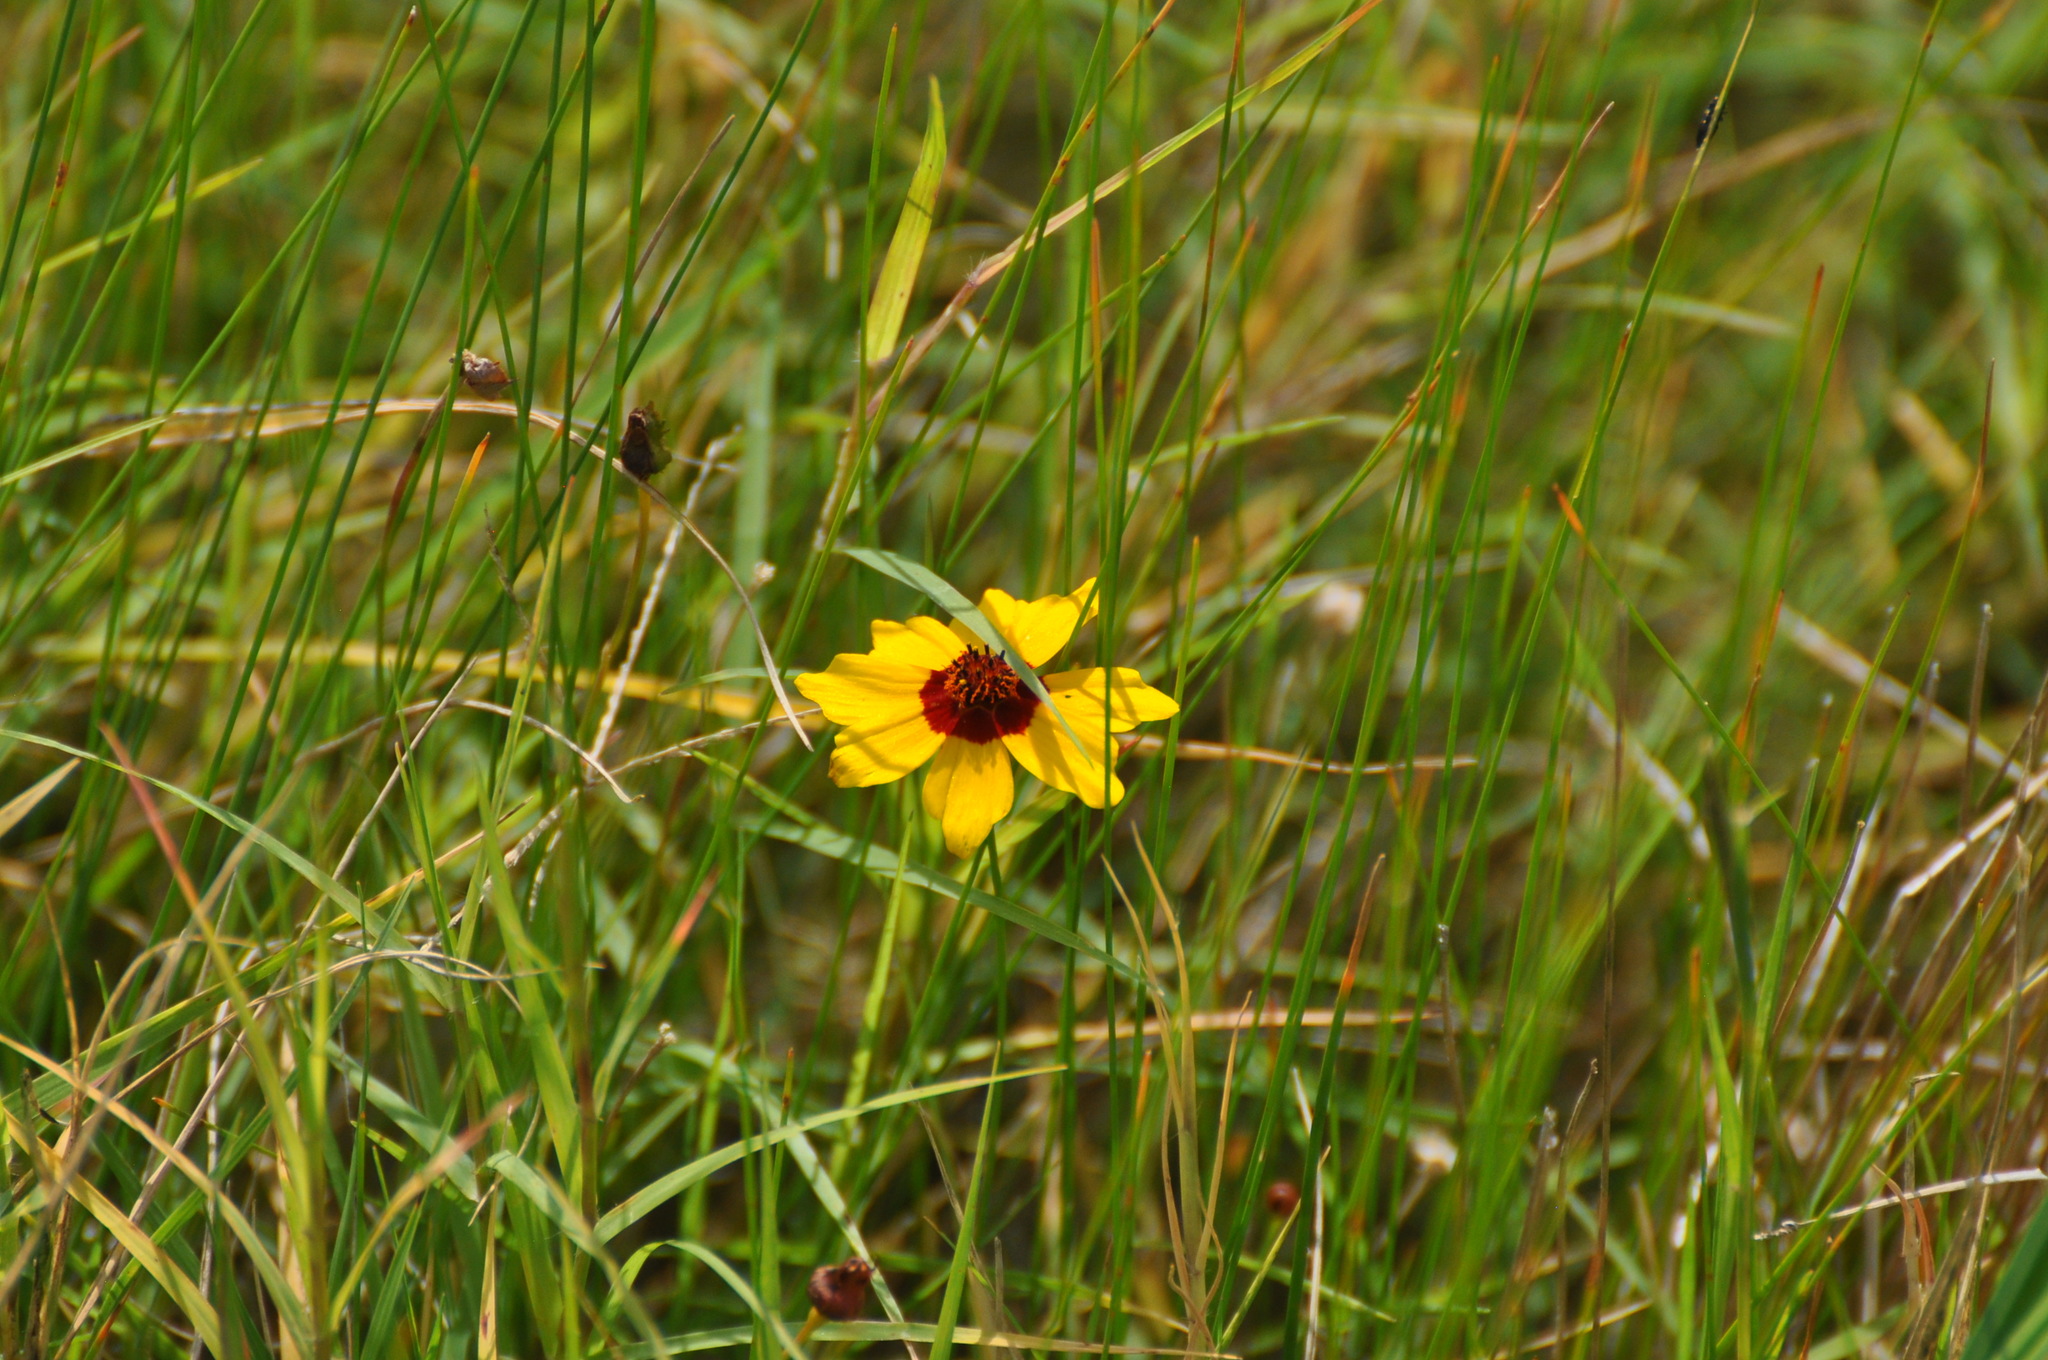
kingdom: Plantae
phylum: Tracheophyta
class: Magnoliopsida
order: Asterales
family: Asteraceae
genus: Coreopsis
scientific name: Coreopsis tinctoria
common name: Garden tickseed
